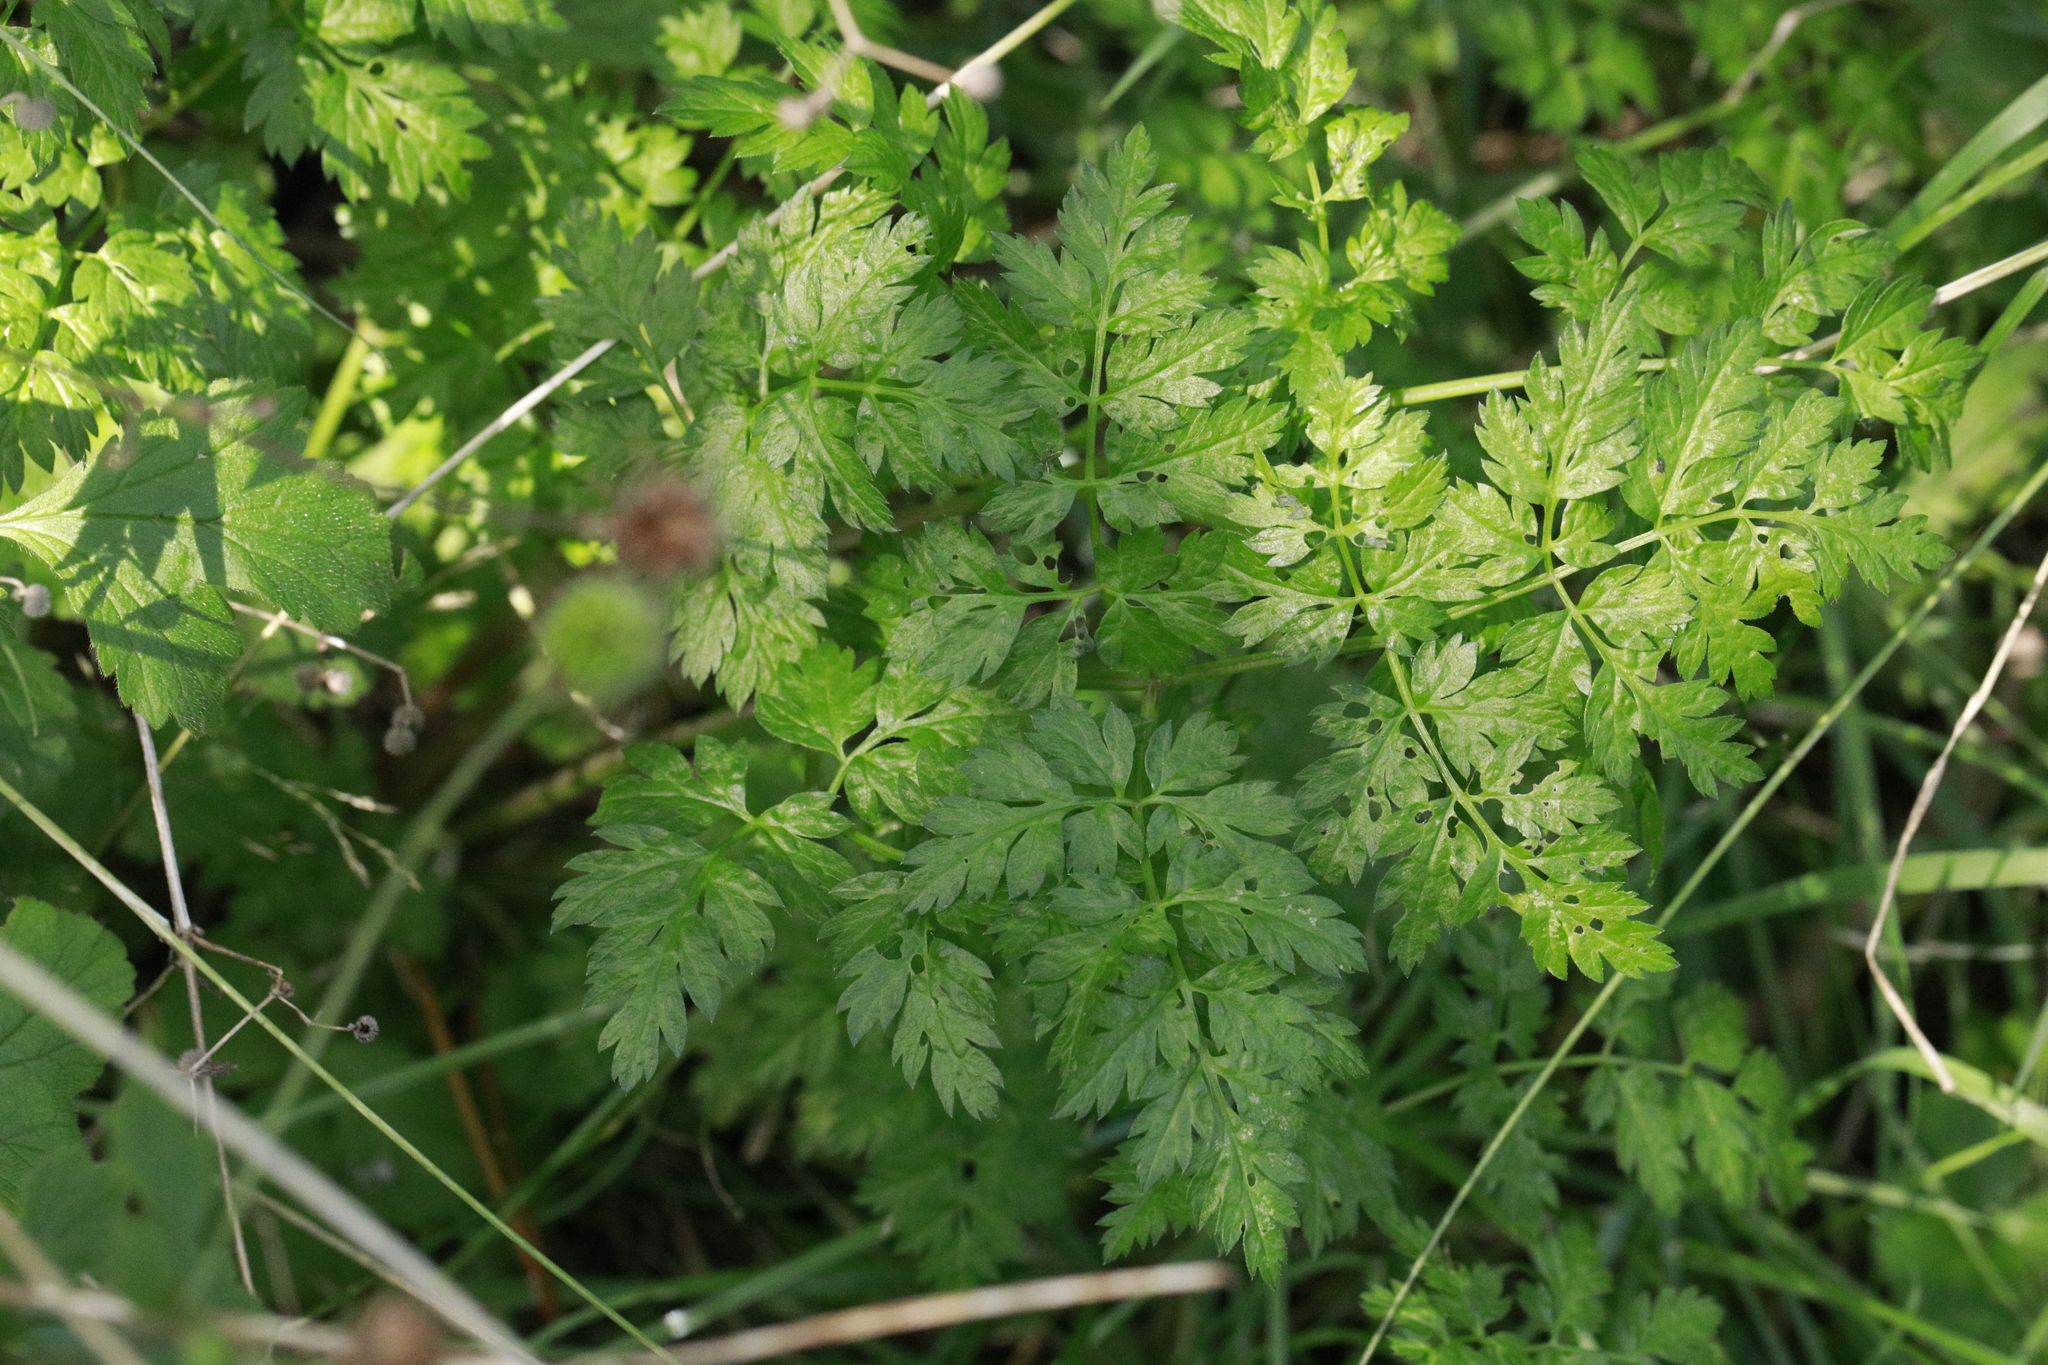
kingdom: Plantae
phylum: Tracheophyta
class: Magnoliopsida
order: Apiales
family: Apiaceae
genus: Anthriscus
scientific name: Anthriscus sylvestris
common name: Cow parsley
